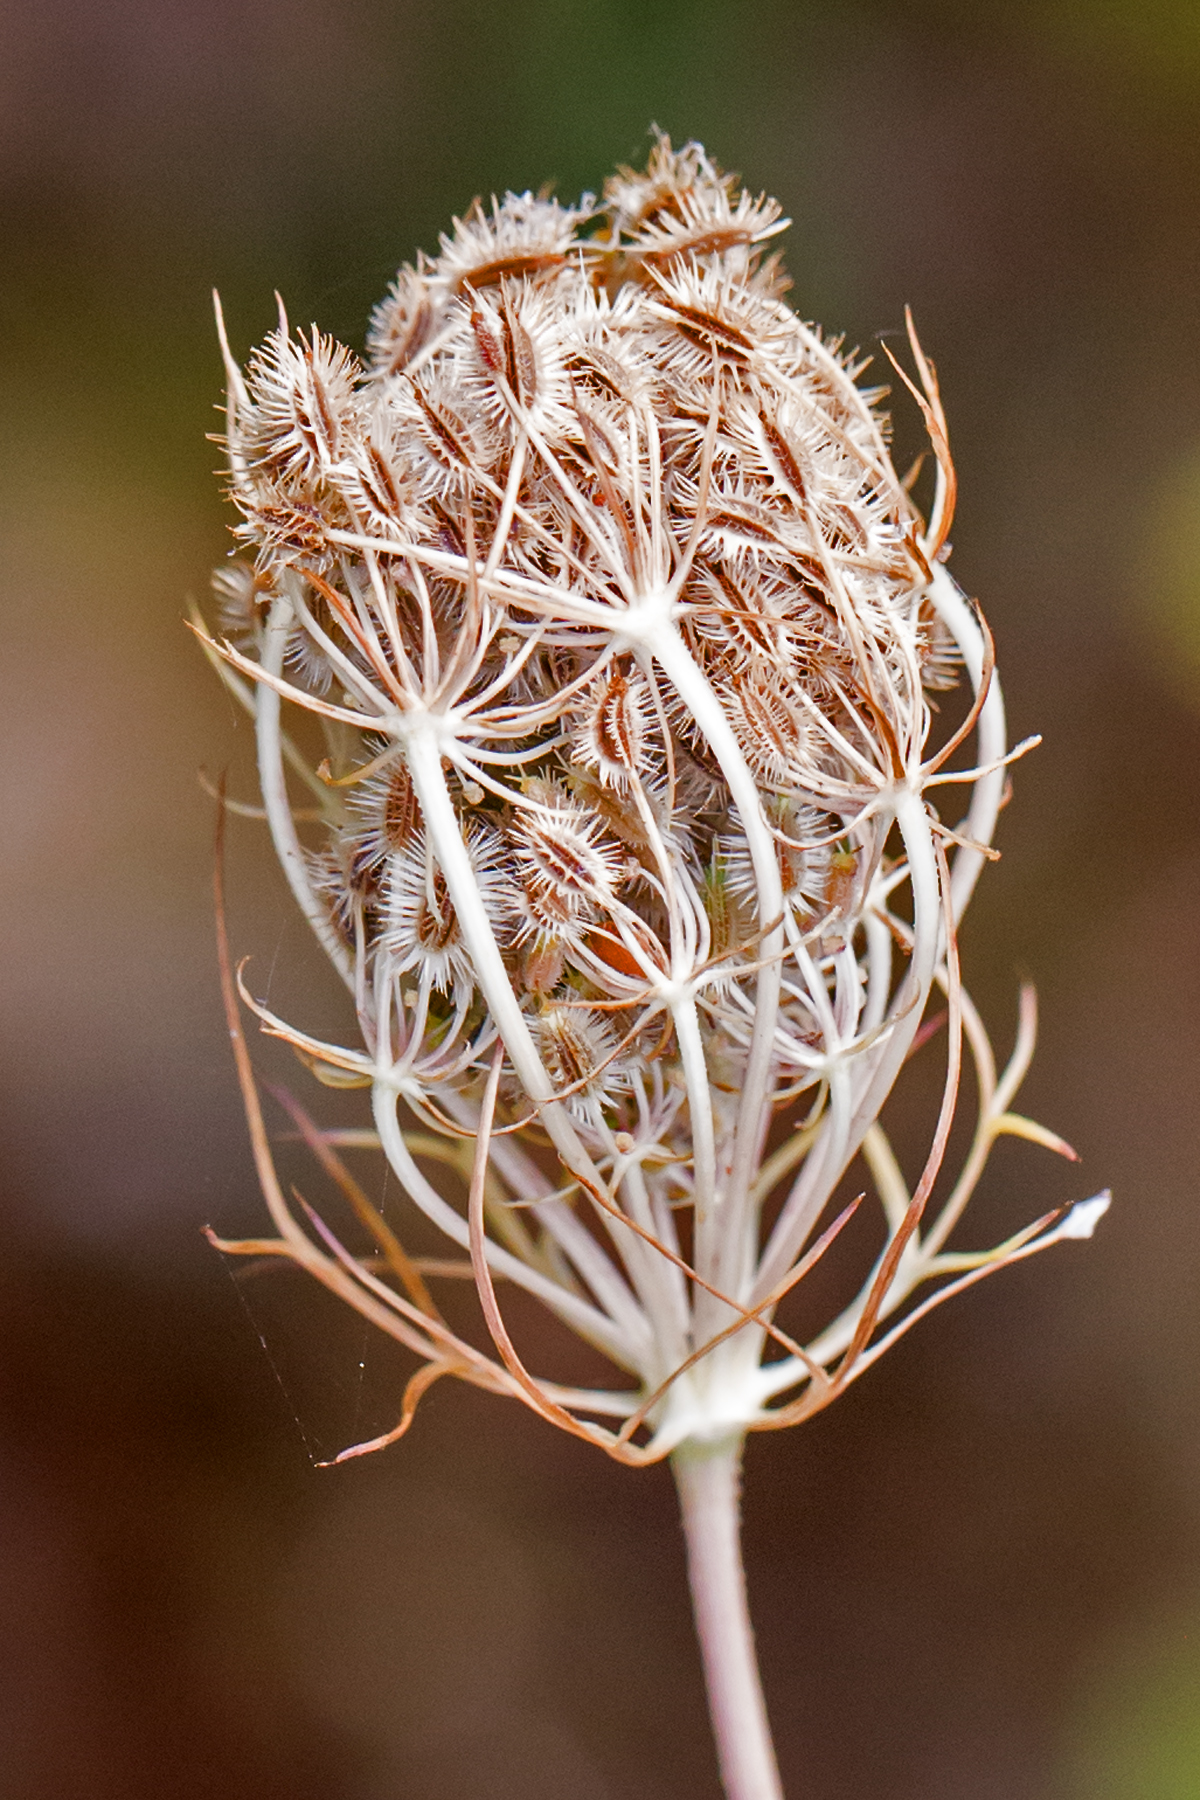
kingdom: Plantae
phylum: Tracheophyta
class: Magnoliopsida
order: Apiales
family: Apiaceae
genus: Daucus
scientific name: Daucus carota
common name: Wild carrot
